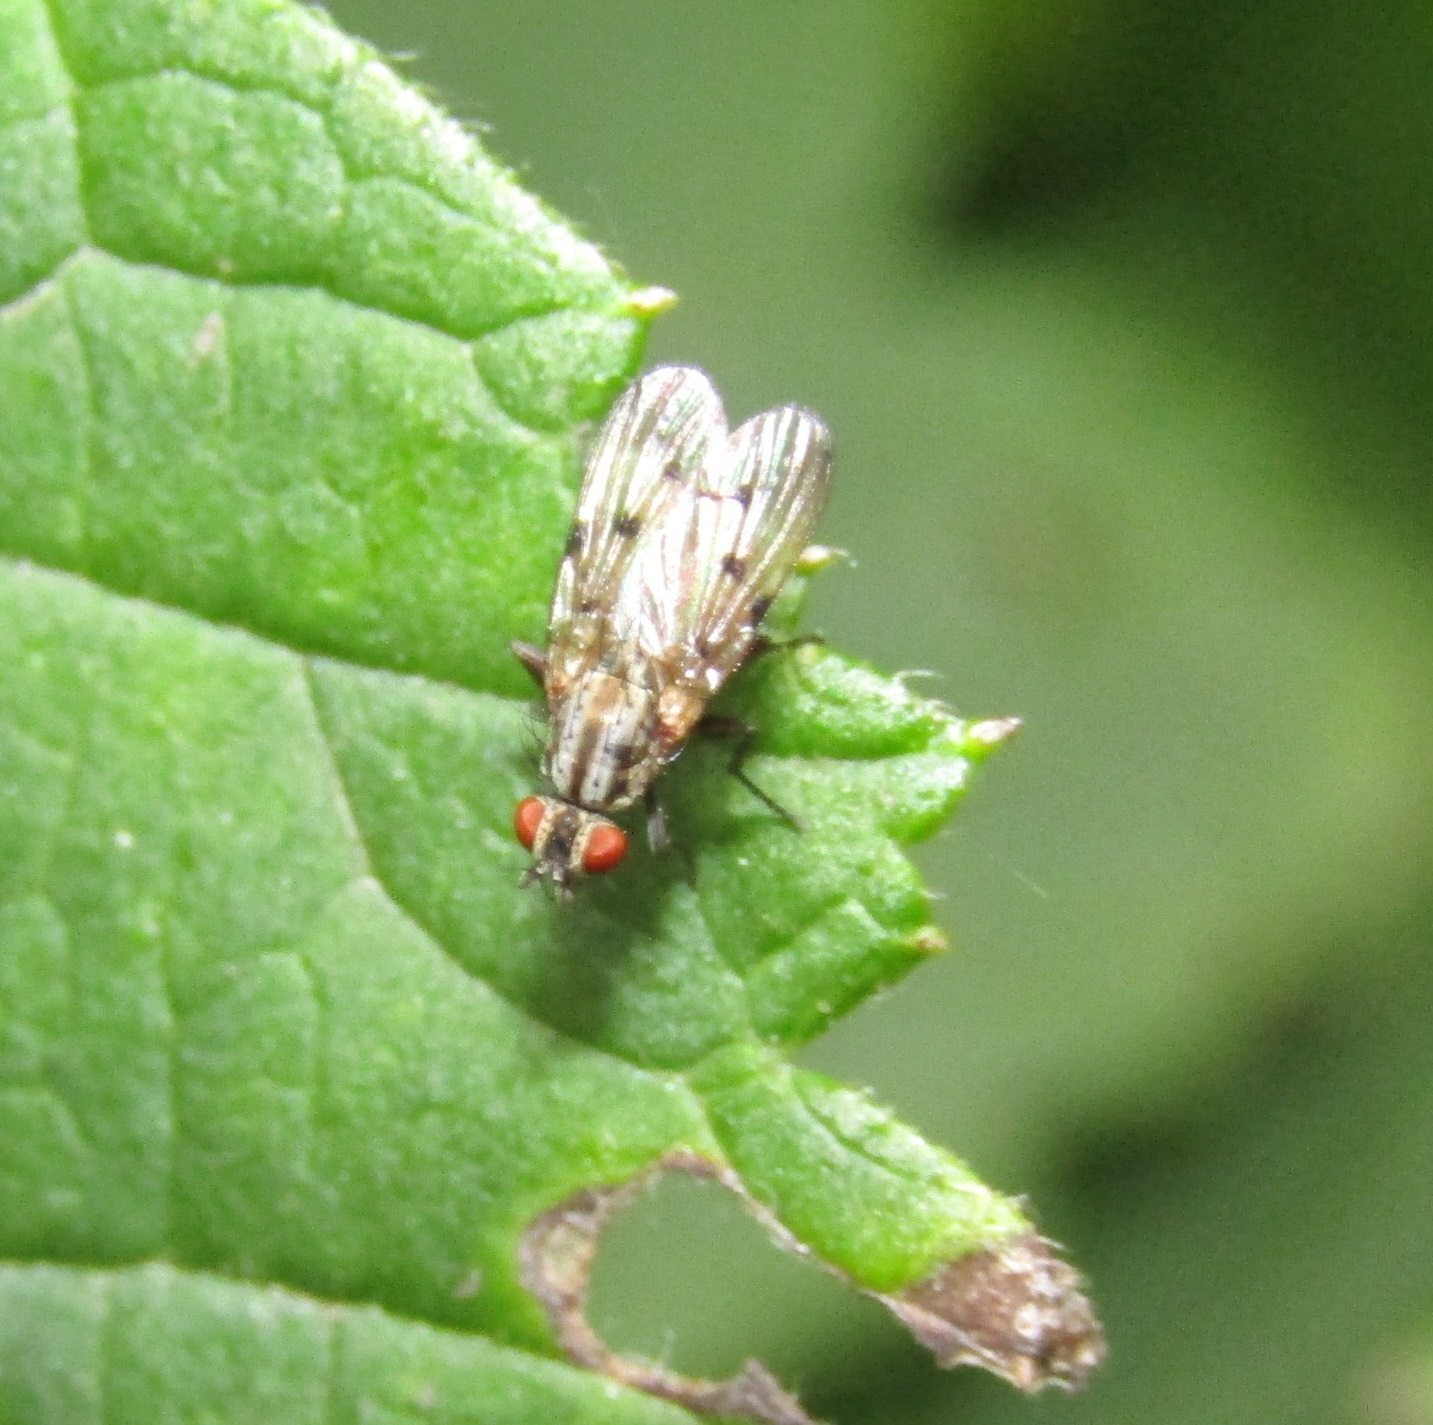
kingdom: Animalia
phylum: Arthropoda
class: Insecta
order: Diptera
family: Anthomyiidae
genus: Anthomyia
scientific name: Anthomyia punctipennis
